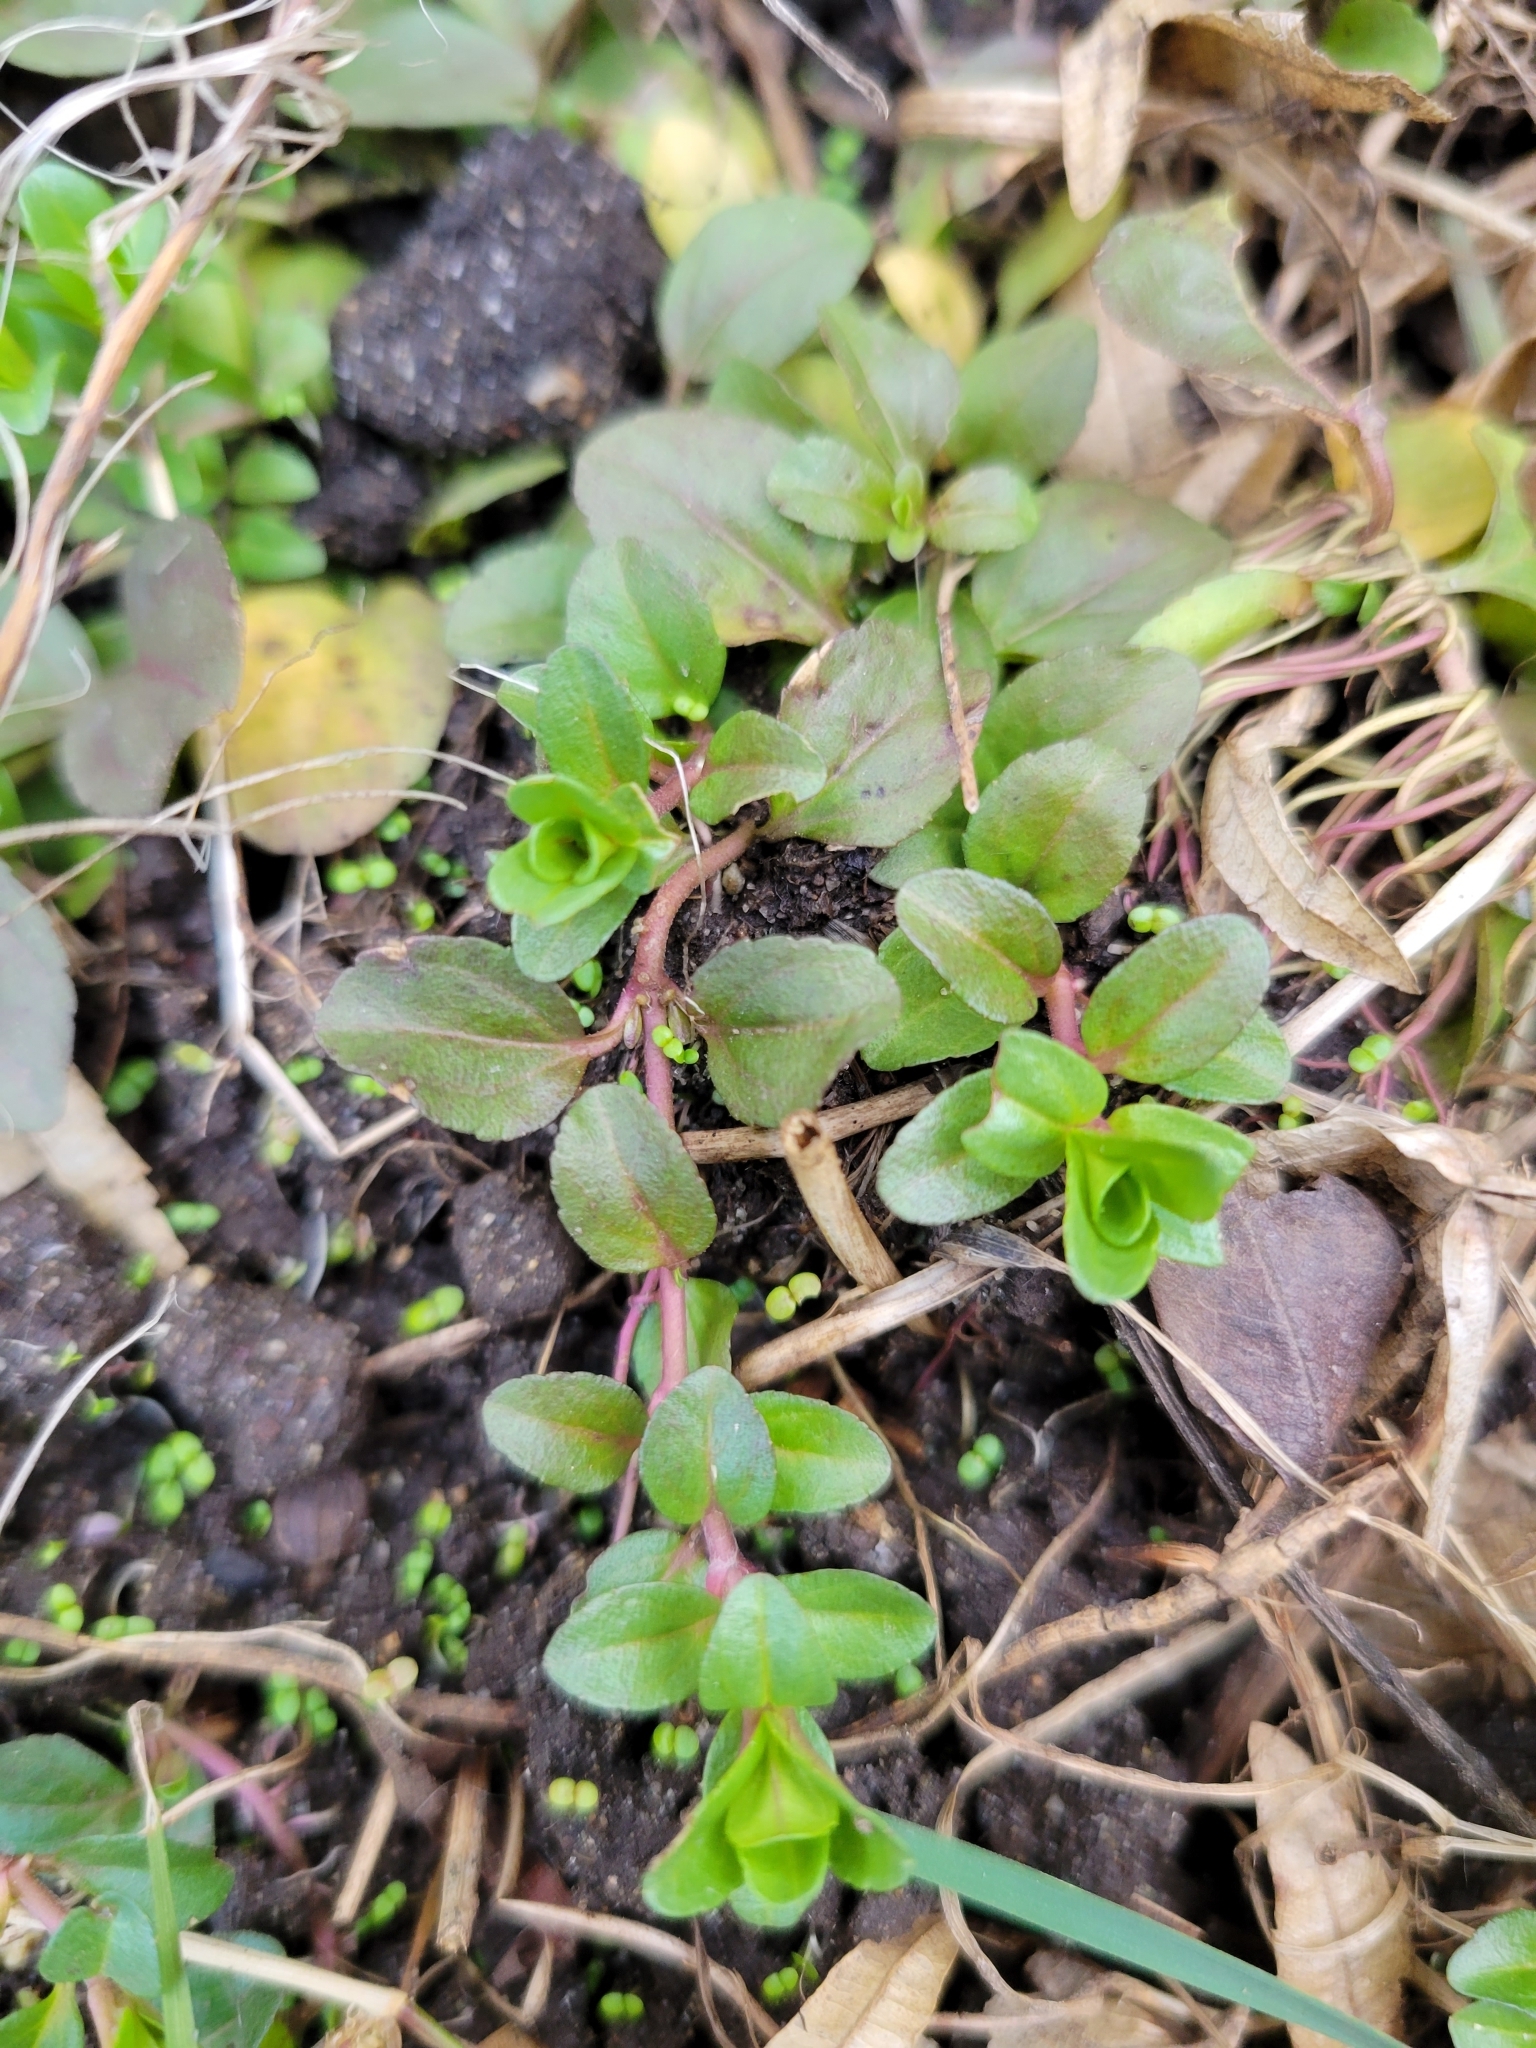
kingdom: Plantae
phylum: Tracheophyta
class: Magnoliopsida
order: Lamiales
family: Plantaginaceae
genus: Veronica
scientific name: Veronica serpyllifolia
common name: Thyme-leaved speedwell
